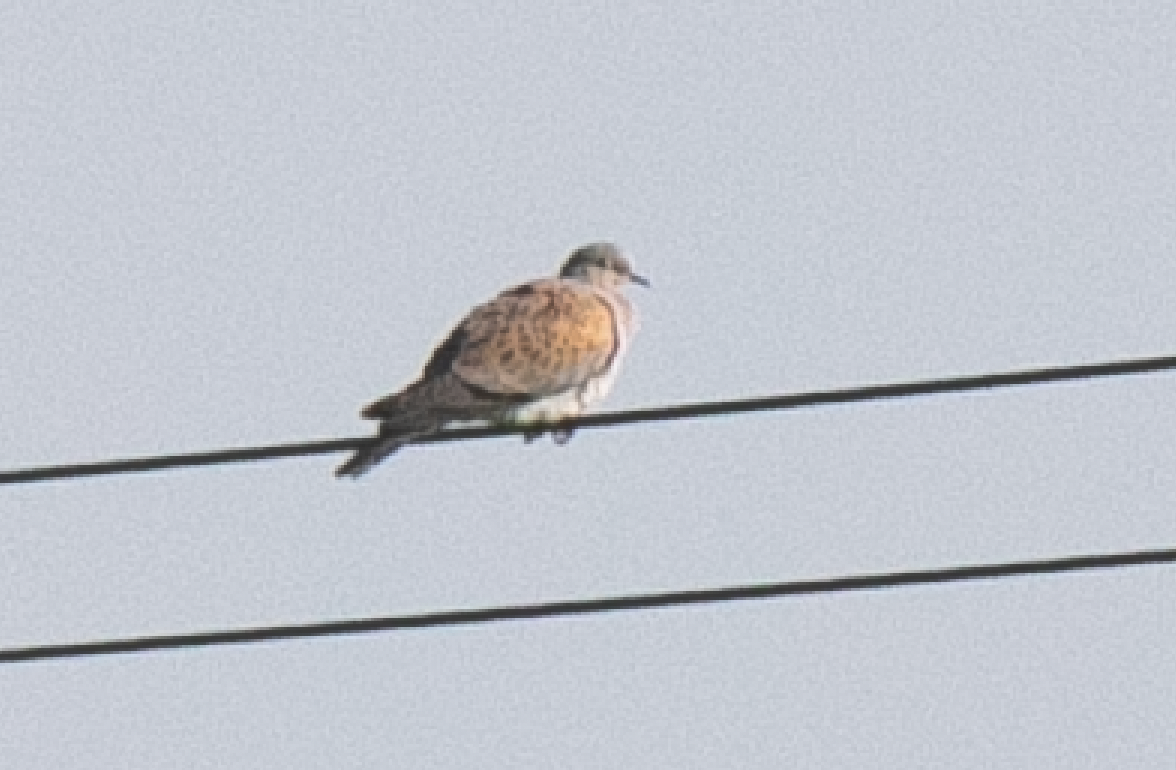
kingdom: Animalia
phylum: Chordata
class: Aves
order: Columbiformes
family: Columbidae
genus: Streptopelia
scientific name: Streptopelia turtur
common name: European turtle dove
